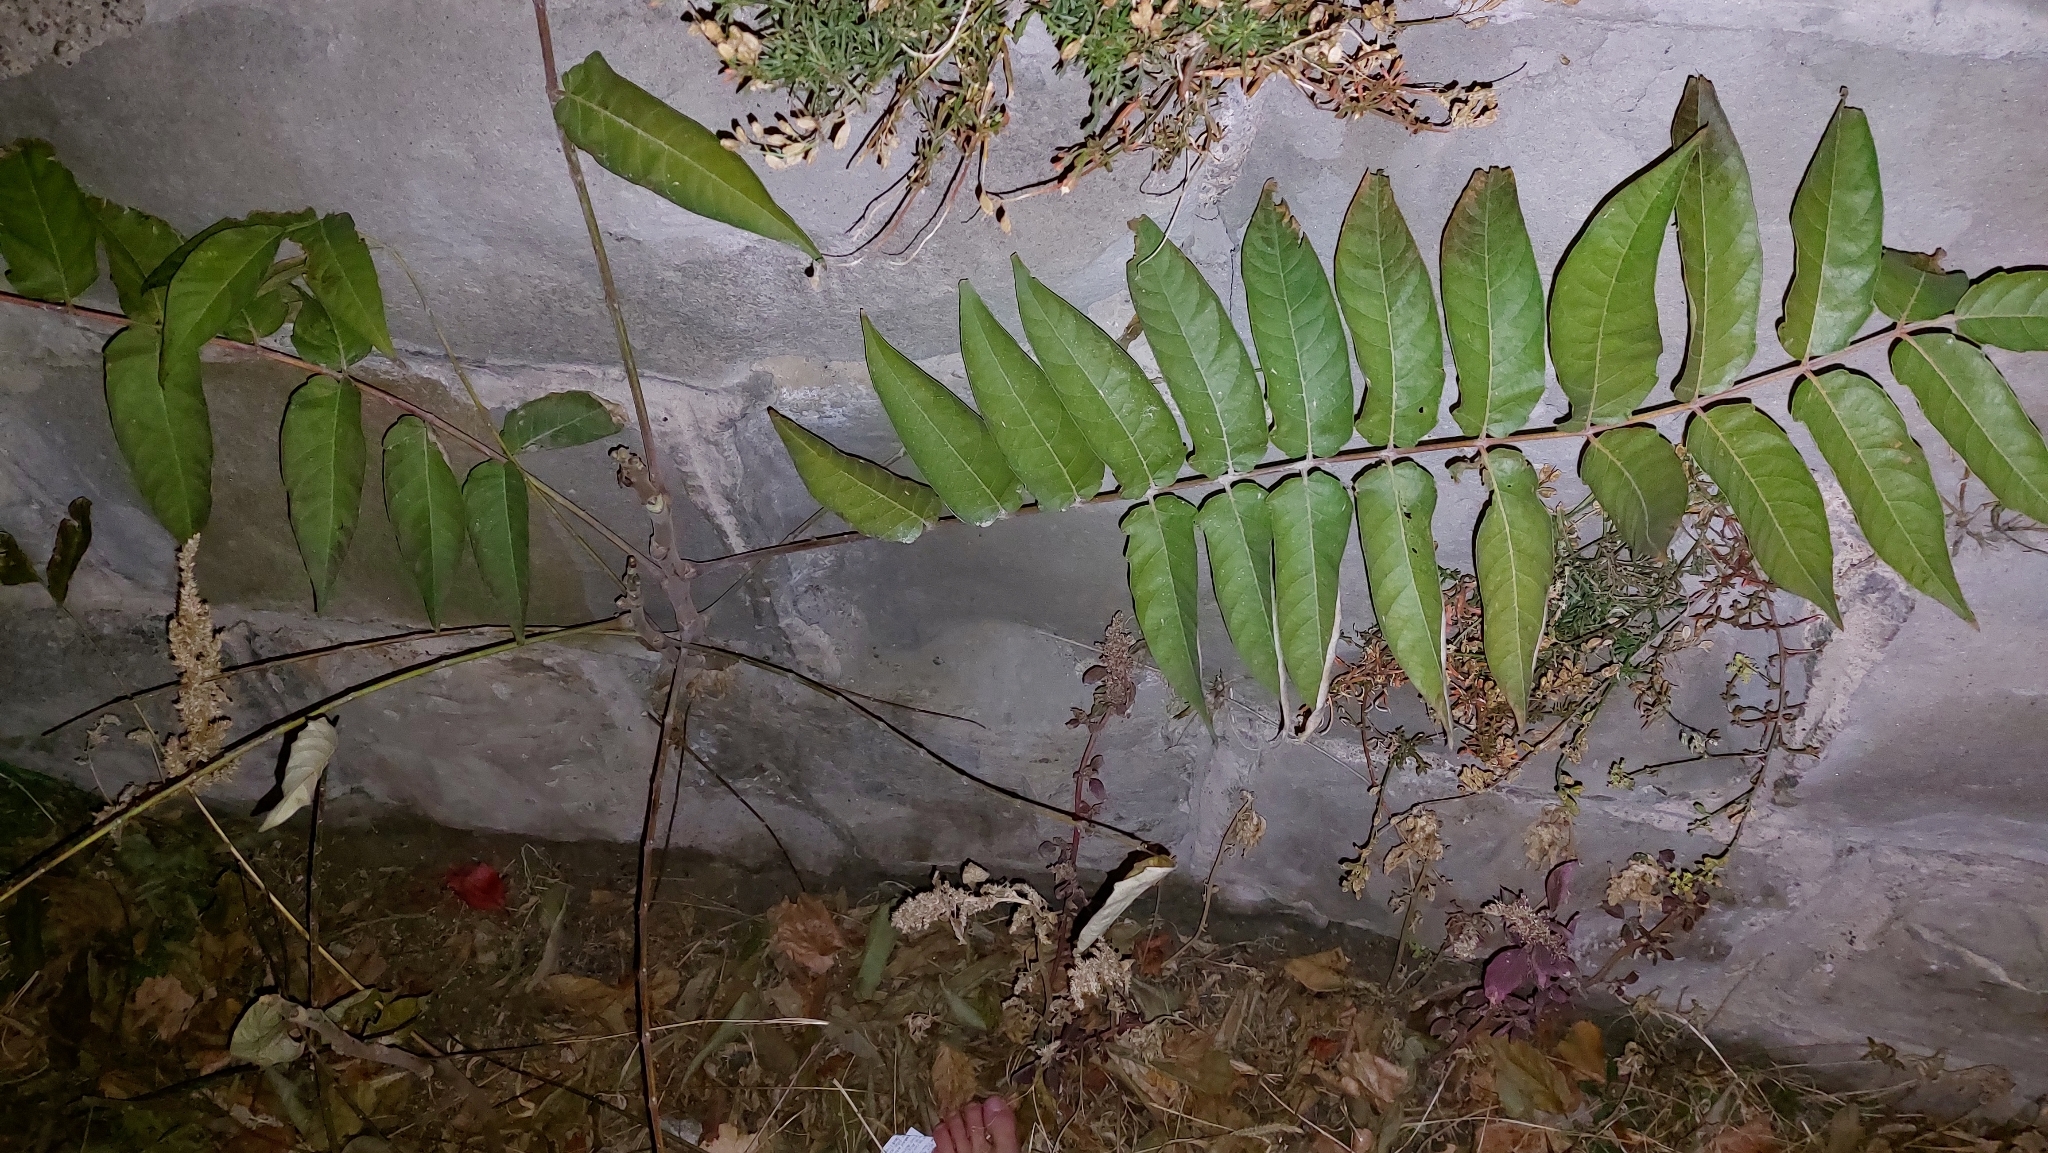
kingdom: Plantae
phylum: Tracheophyta
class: Magnoliopsida
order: Sapindales
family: Simaroubaceae
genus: Ailanthus
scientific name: Ailanthus altissima
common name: Tree-of-heaven
